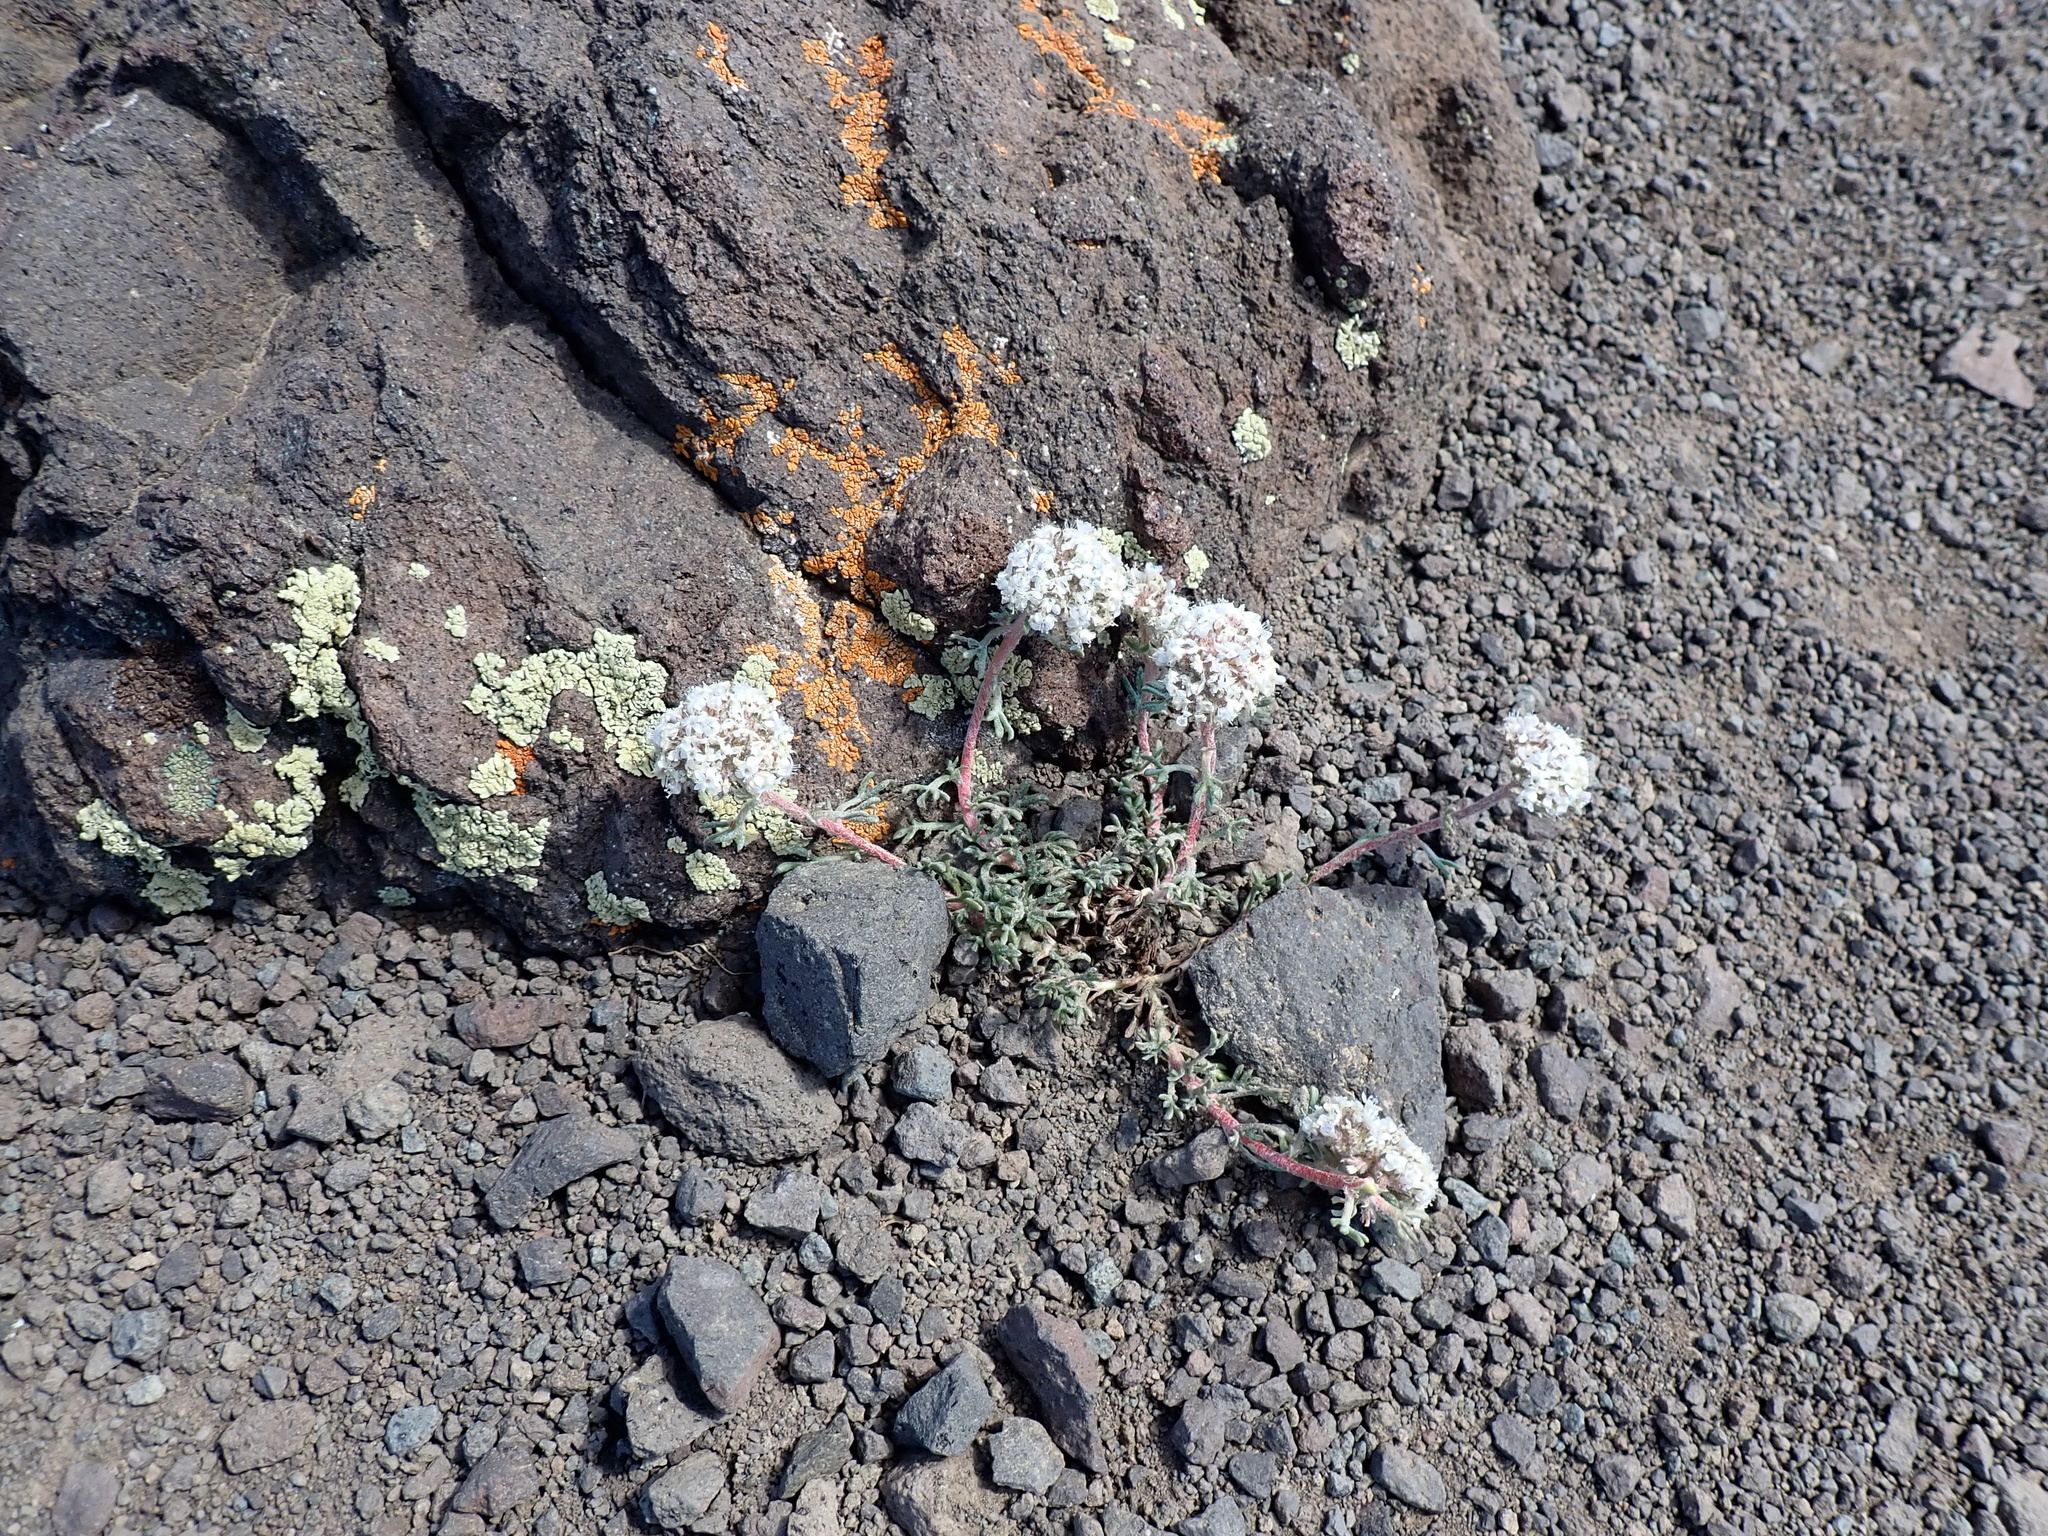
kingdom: Plantae
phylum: Tracheophyta
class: Magnoliopsida
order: Ericales
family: Polemoniaceae
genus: Ipomopsis
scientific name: Ipomopsis congesta
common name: Ball-head gilia
